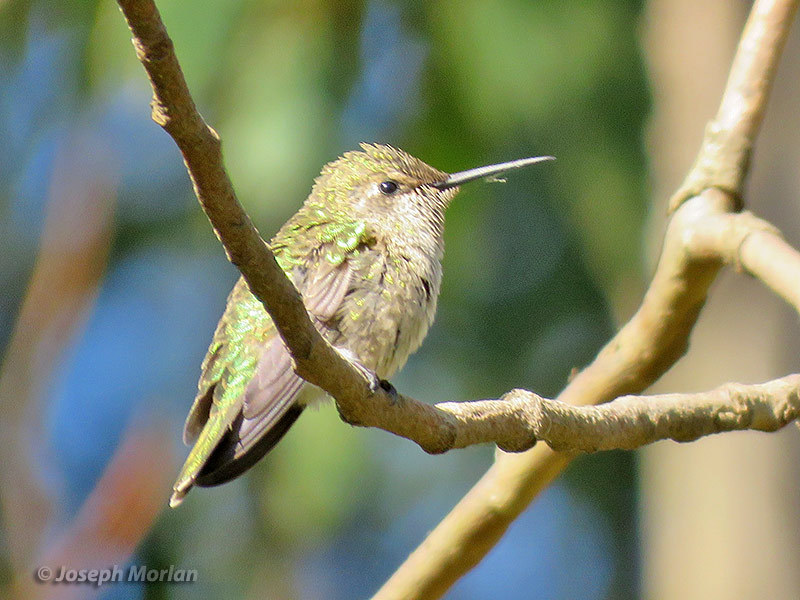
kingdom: Animalia
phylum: Chordata
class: Aves
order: Apodiformes
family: Trochilidae
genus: Calypte
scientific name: Calypte anna
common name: Anna's hummingbird
